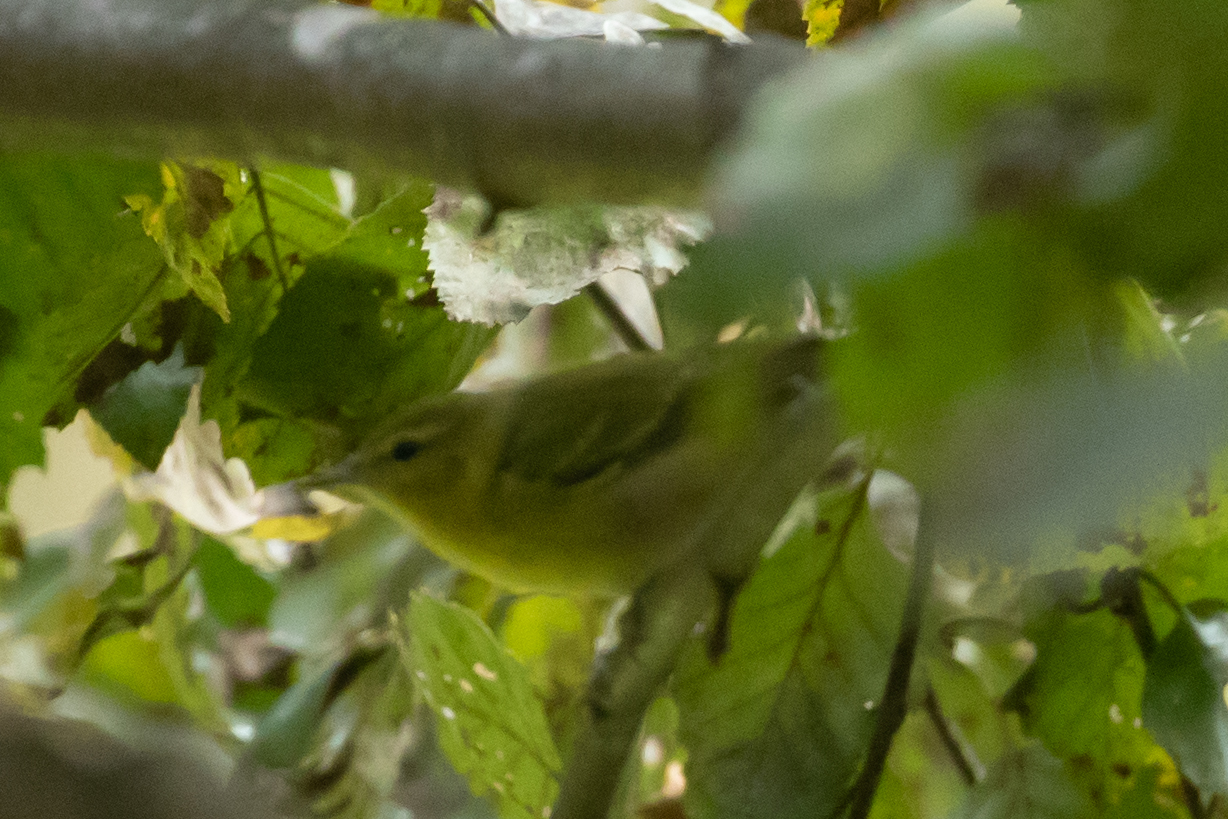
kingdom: Animalia
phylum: Chordata
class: Aves
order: Passeriformes
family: Parulidae
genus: Leiothlypis
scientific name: Leiothlypis peregrina
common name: Tennessee warbler
